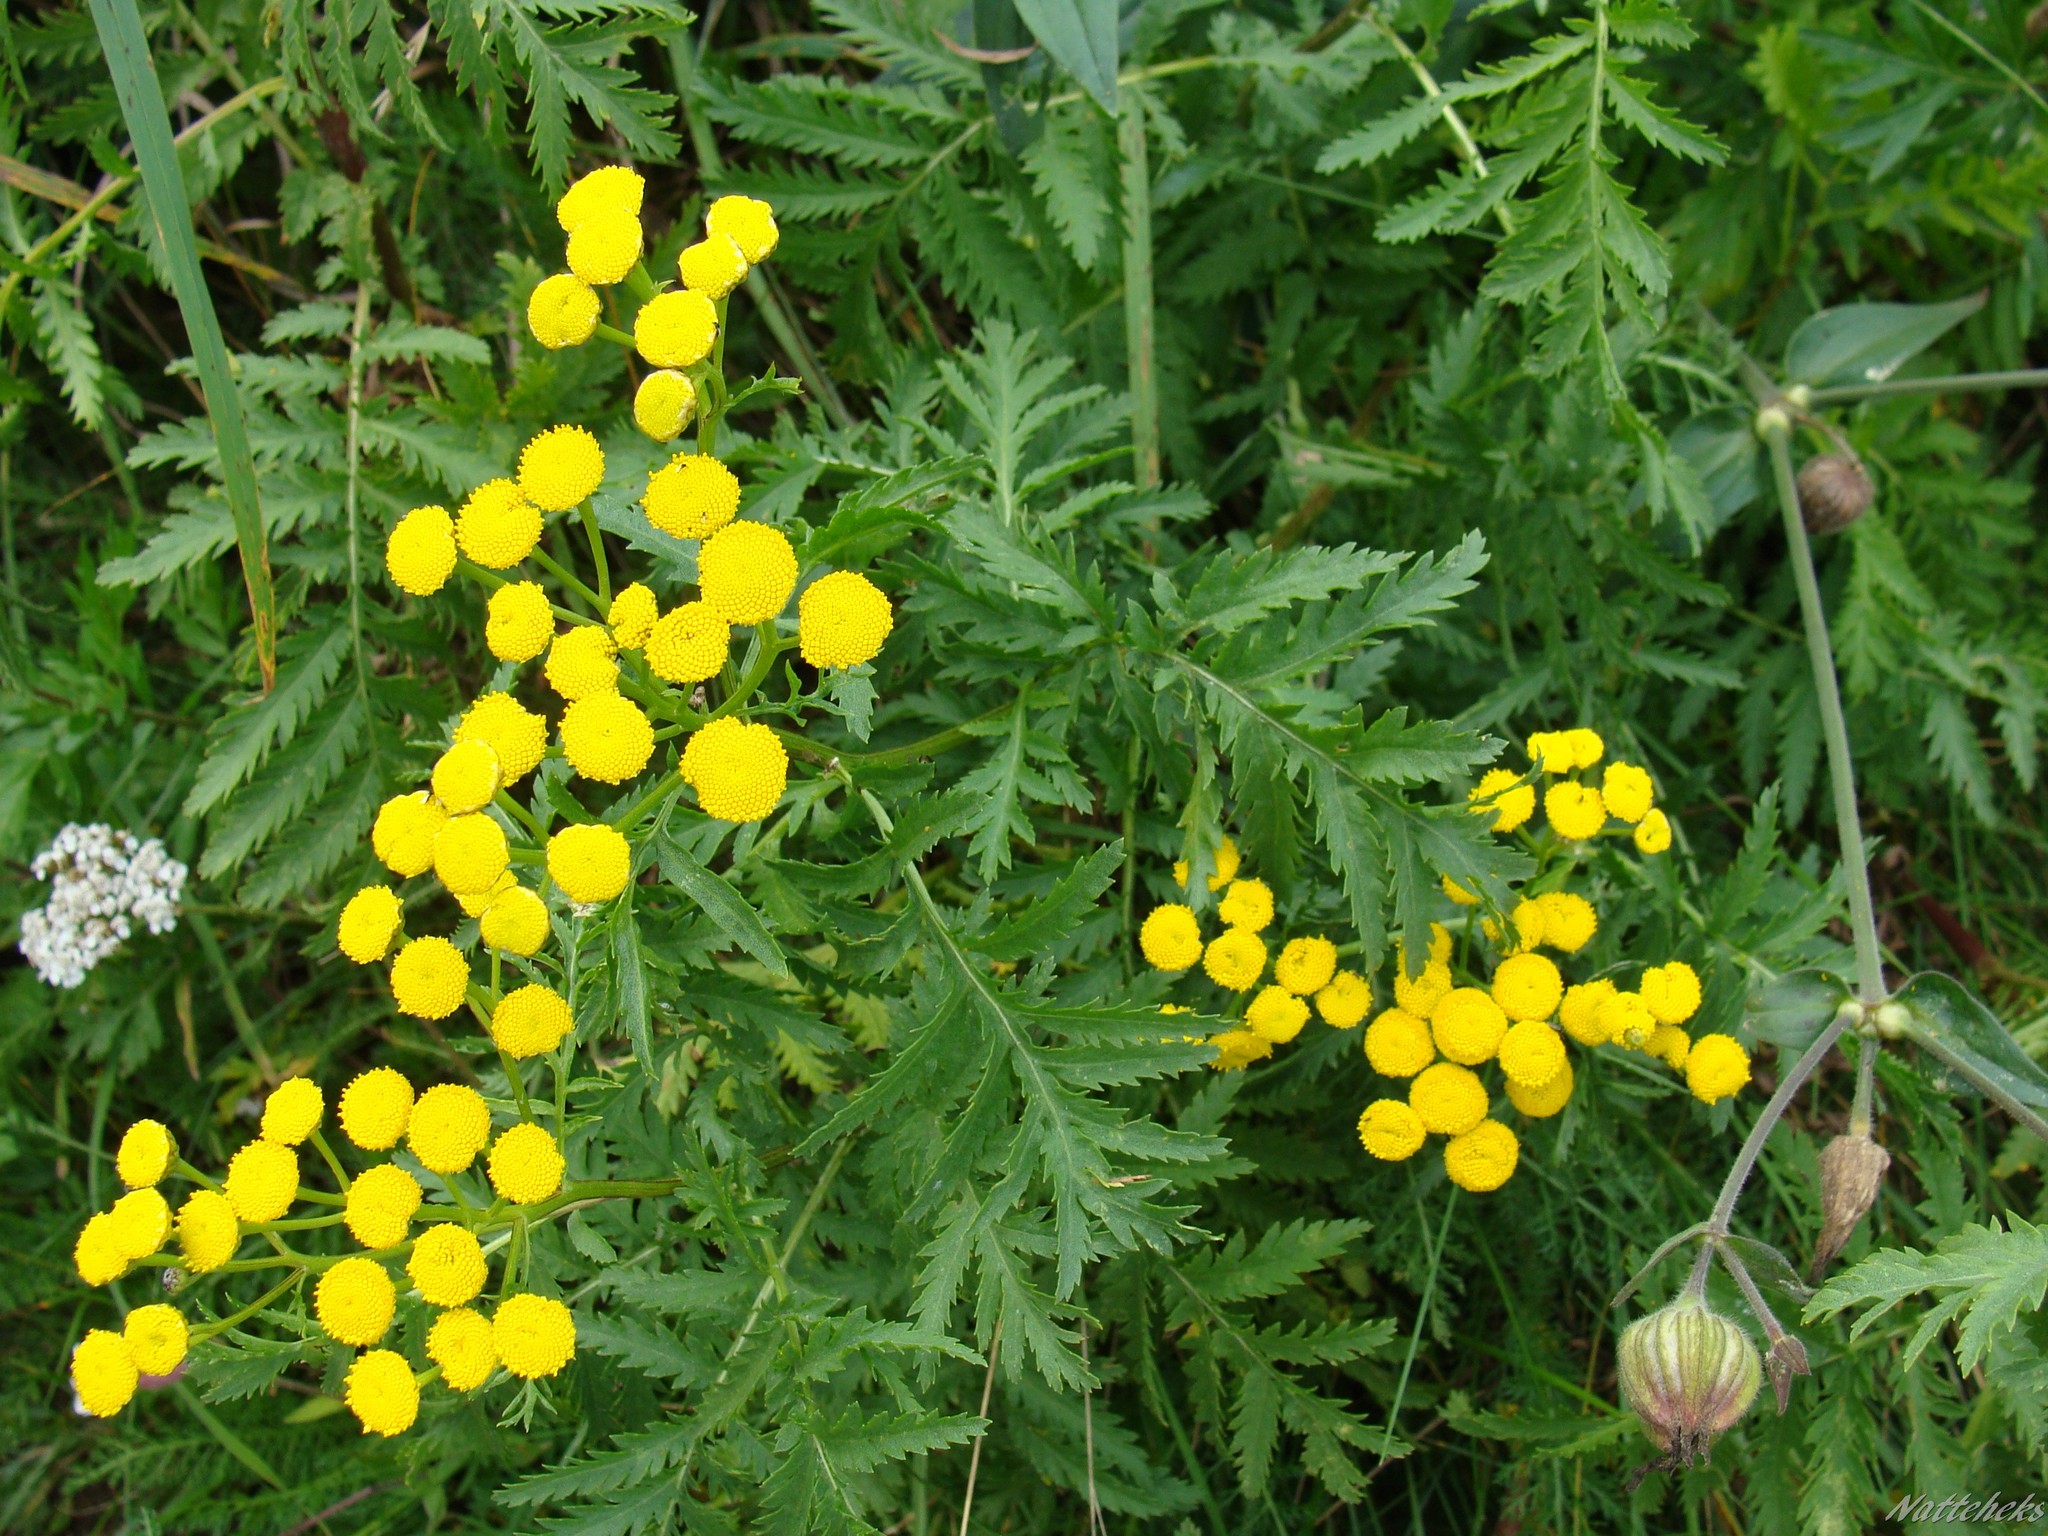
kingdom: Plantae
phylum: Tracheophyta
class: Magnoliopsida
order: Asterales
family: Asteraceae
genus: Tanacetum
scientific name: Tanacetum vulgare
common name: Common tansy
